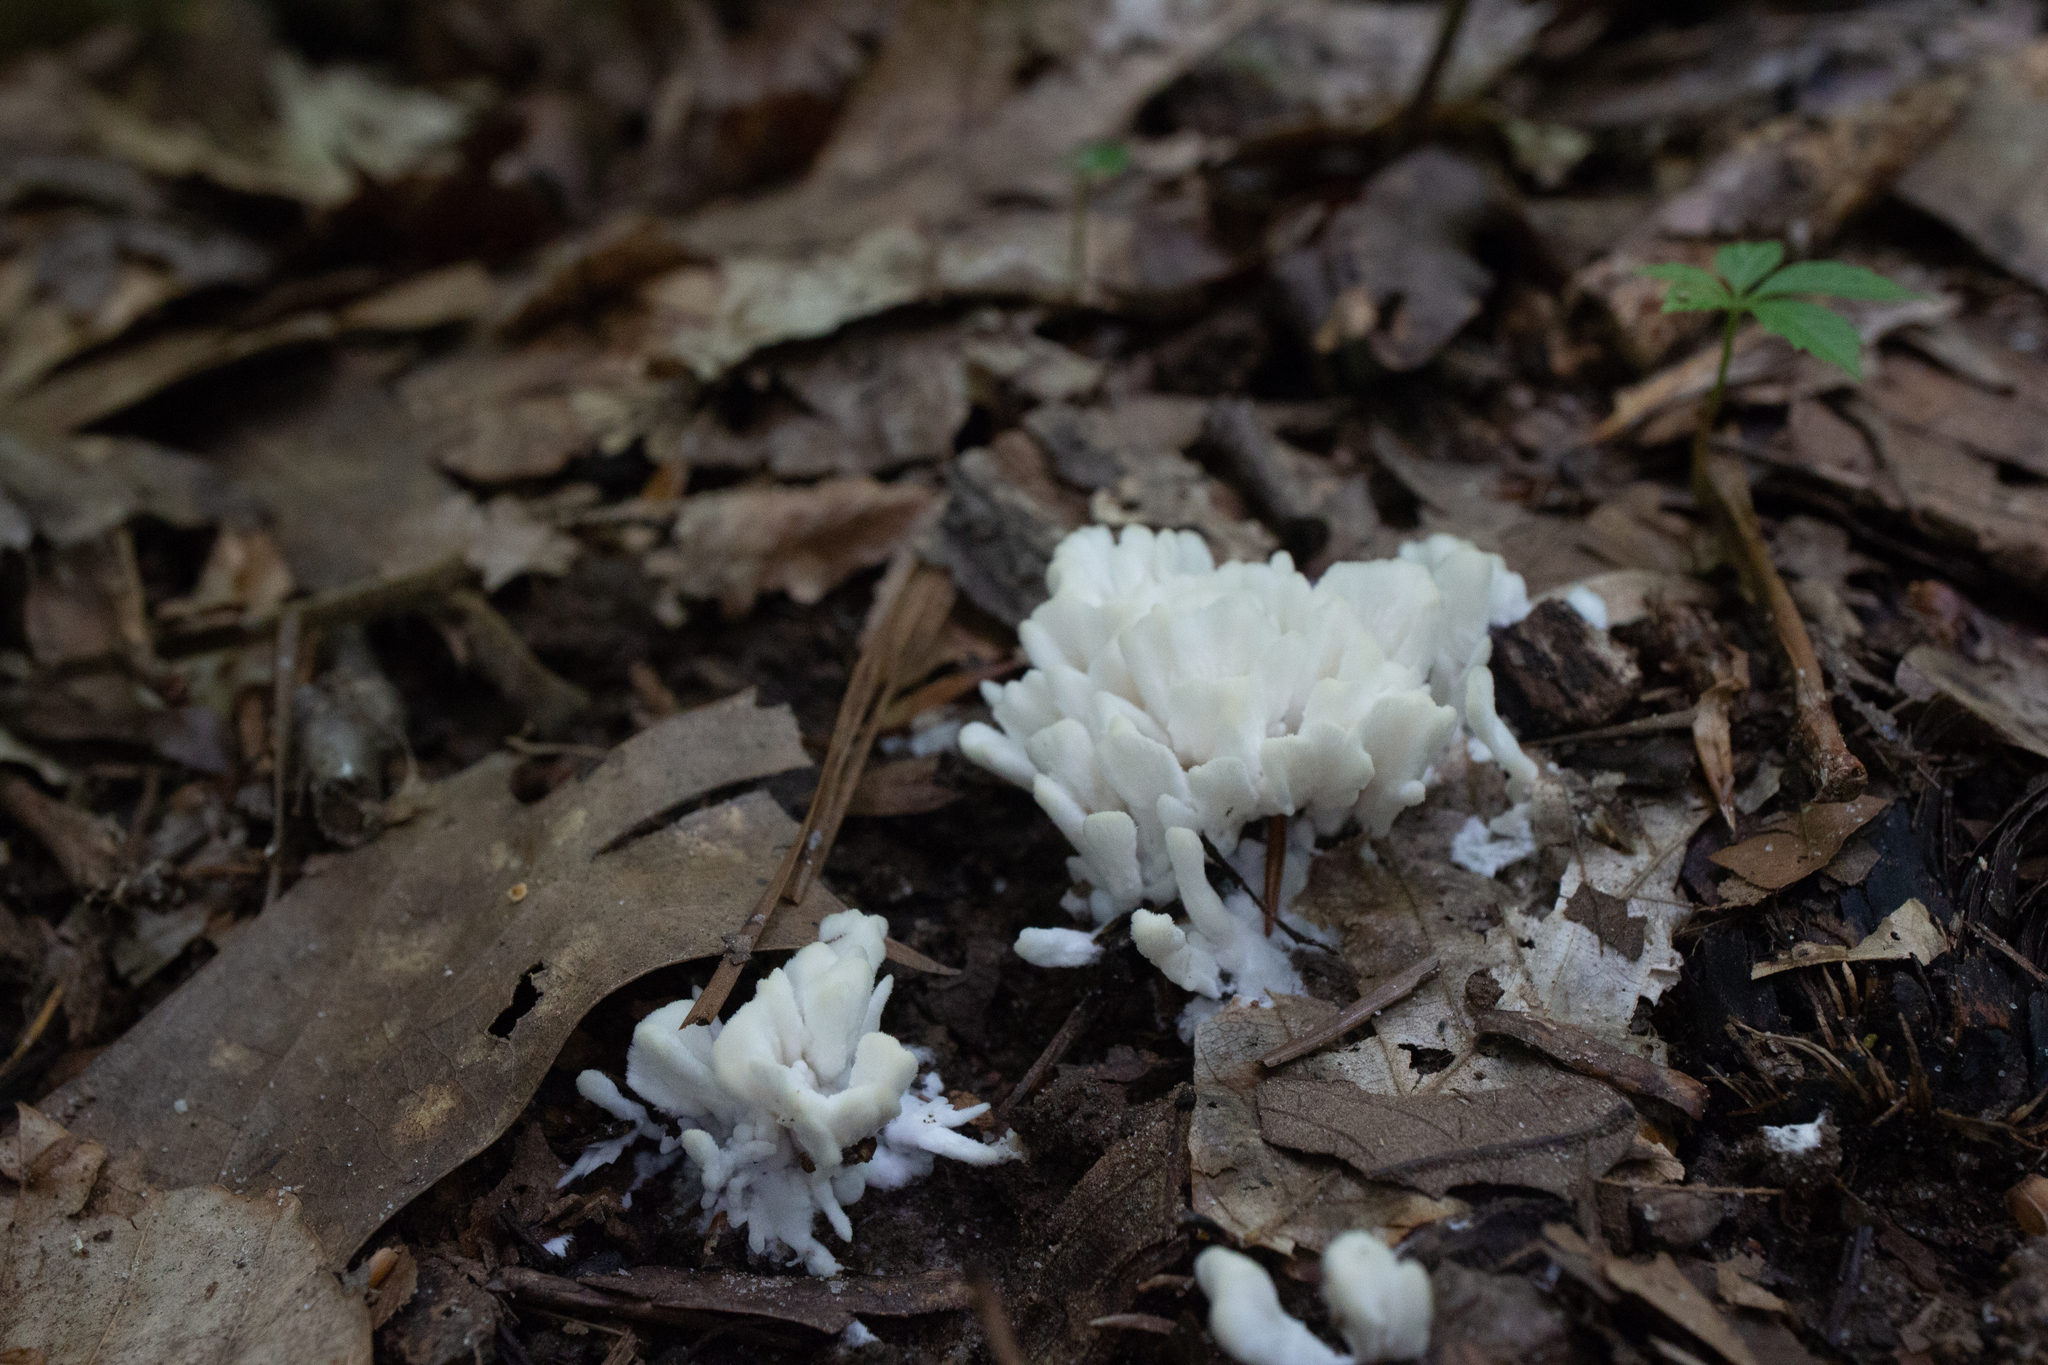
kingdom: Fungi
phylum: Basidiomycota
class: Agaricomycetes
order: Sebacinales
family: Sebacinaceae
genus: Sebacina
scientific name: Sebacina schweinitzii
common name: Jellied false coral fungus
